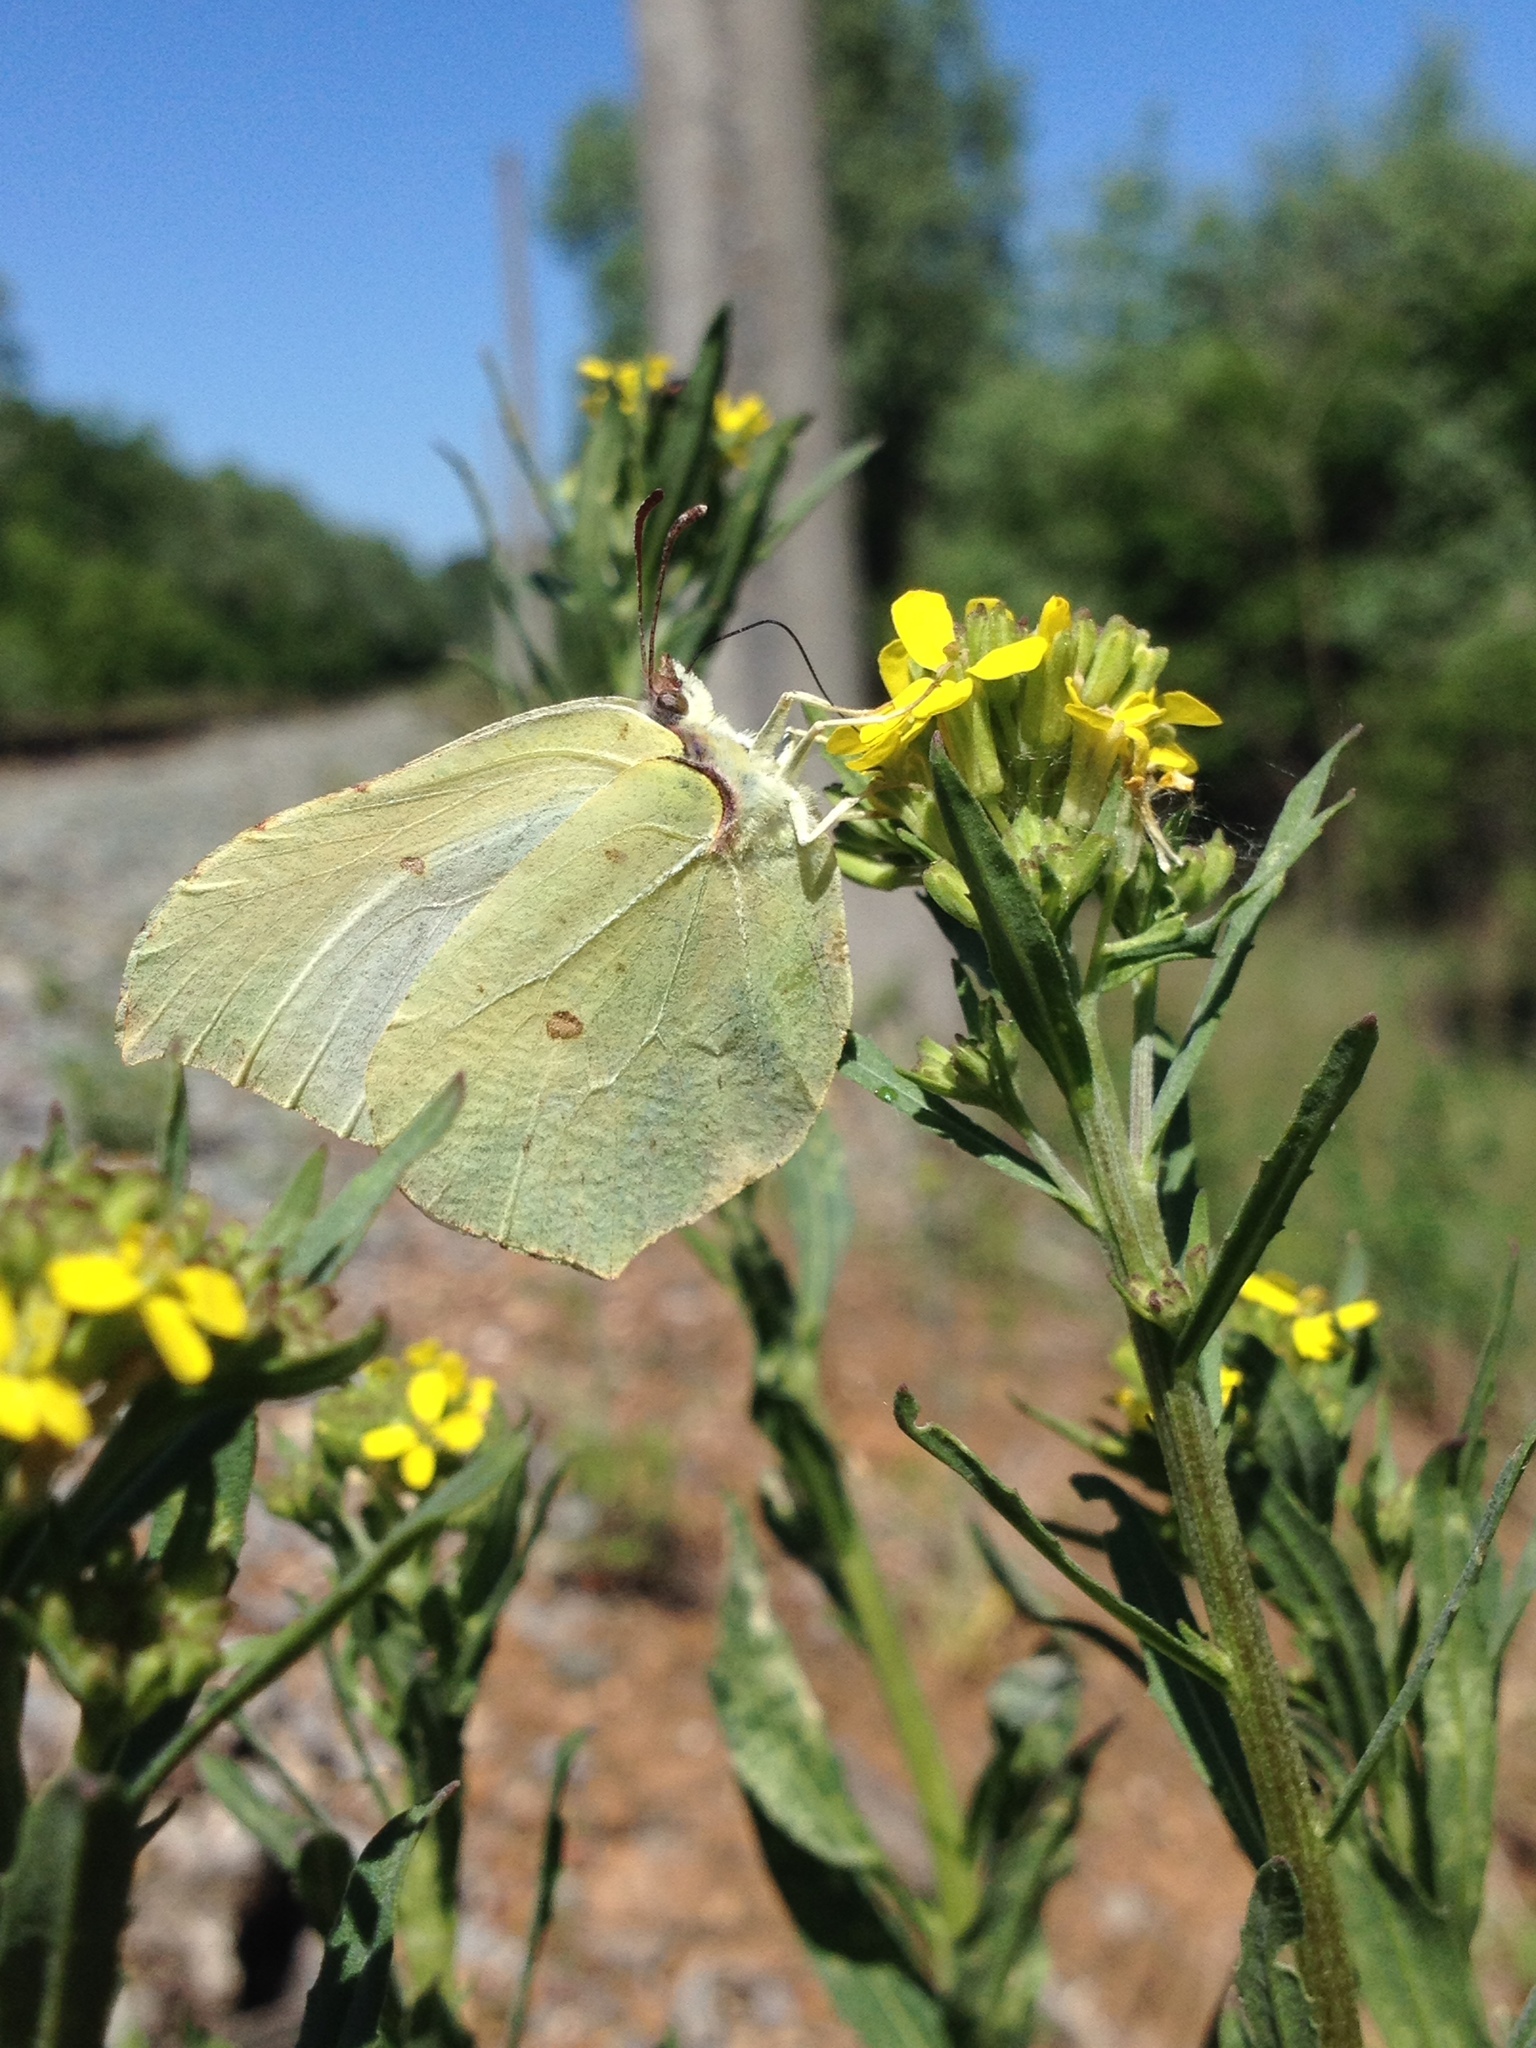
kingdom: Animalia
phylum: Arthropoda
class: Insecta
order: Lepidoptera
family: Pieridae
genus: Gonepteryx
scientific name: Gonepteryx rhamni
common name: Brimstone
